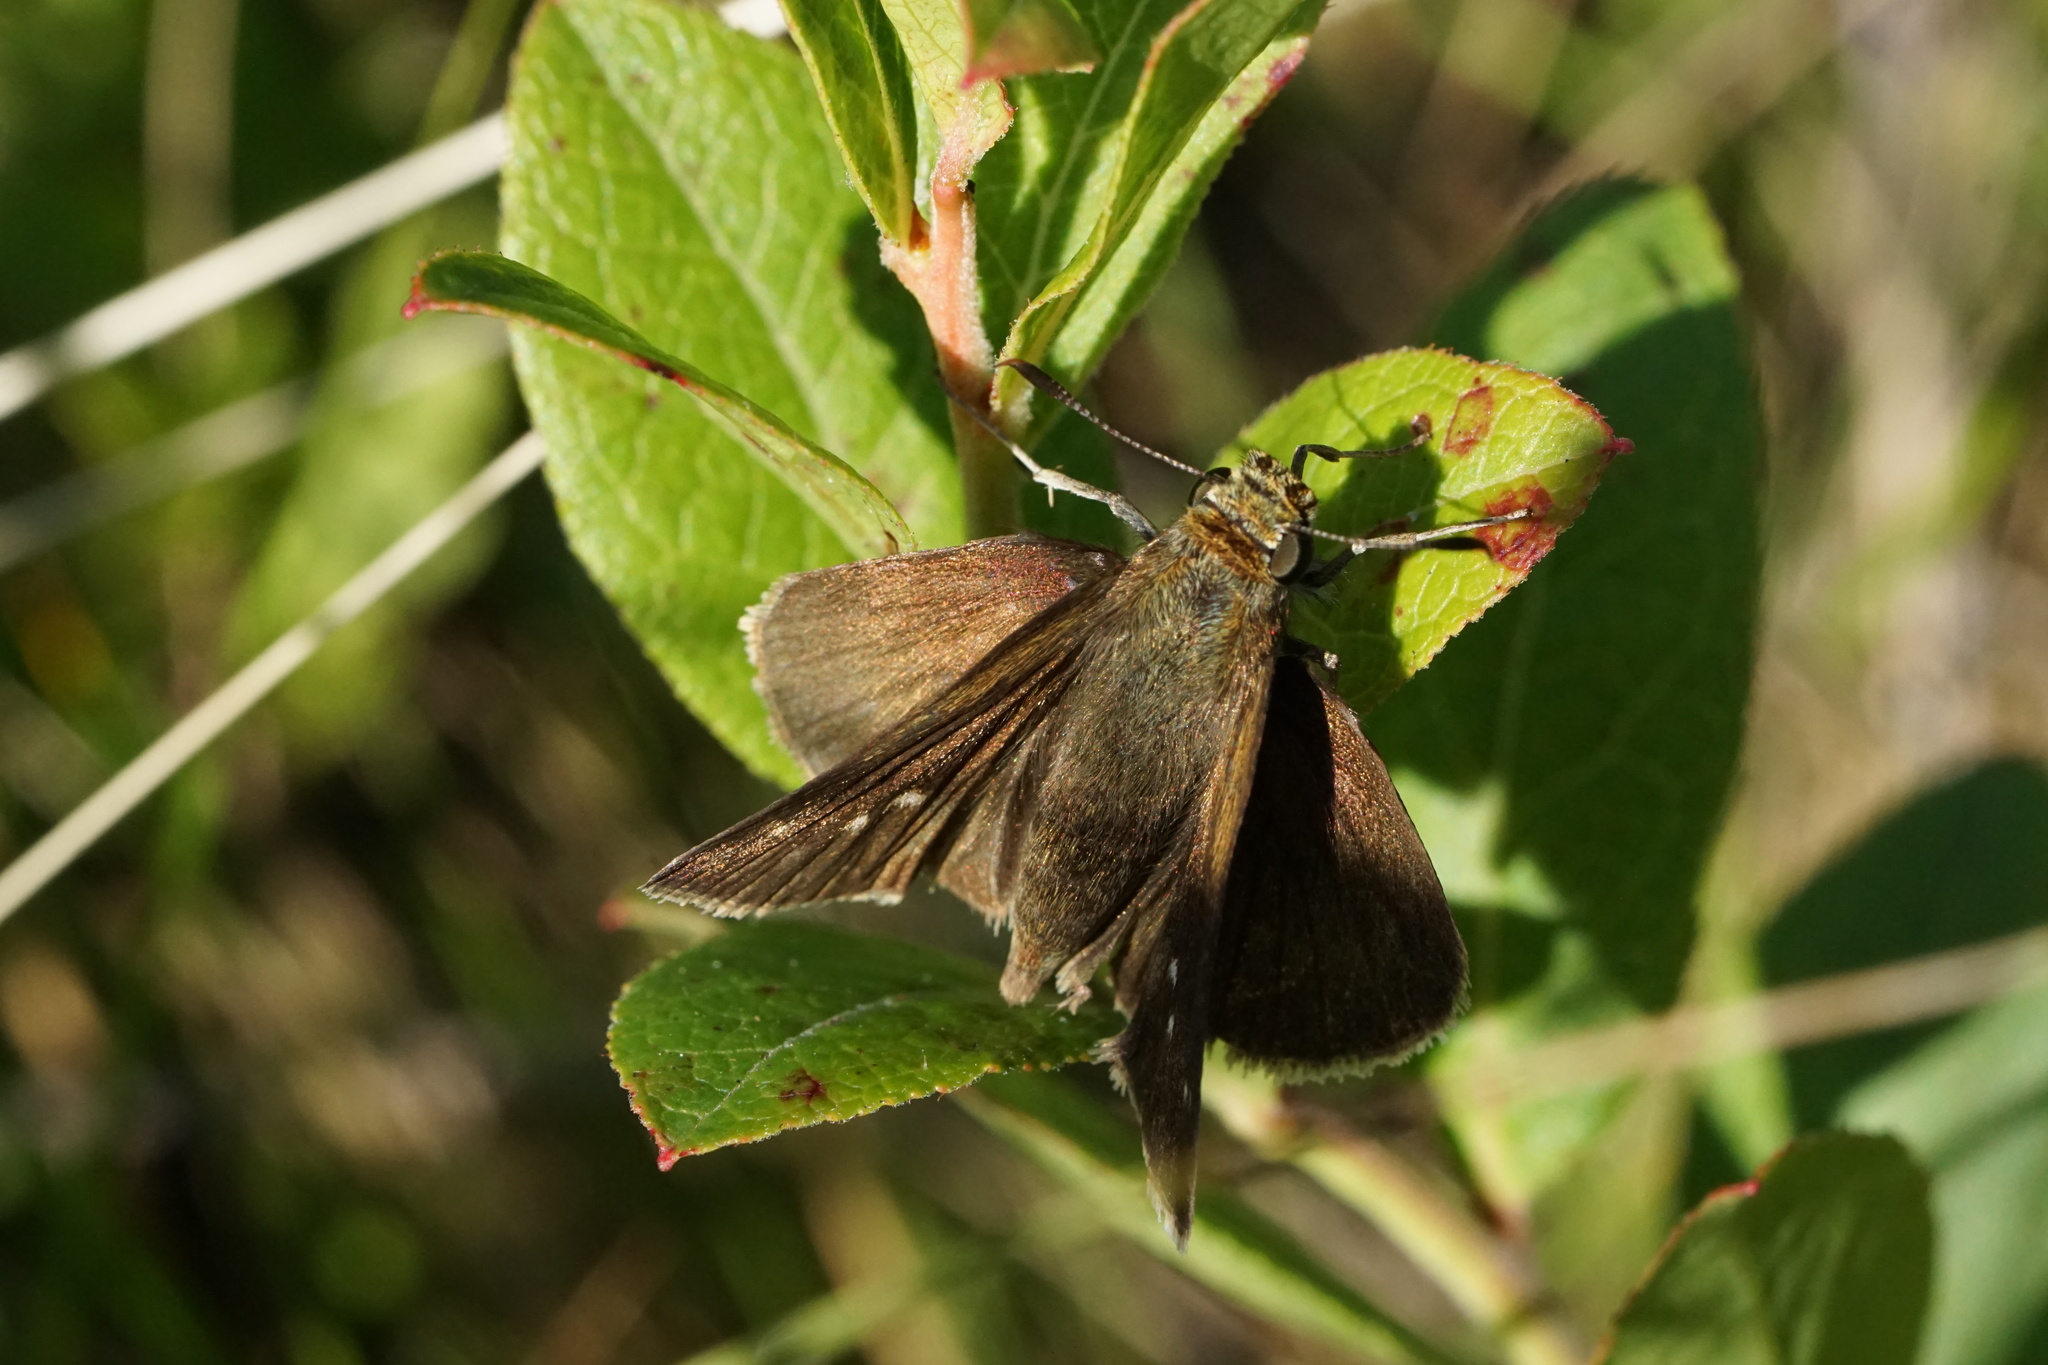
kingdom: Animalia
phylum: Arthropoda
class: Insecta
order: Lepidoptera
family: Hesperiidae
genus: Euphyes
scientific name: Euphyes vestris
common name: Dun skipper
